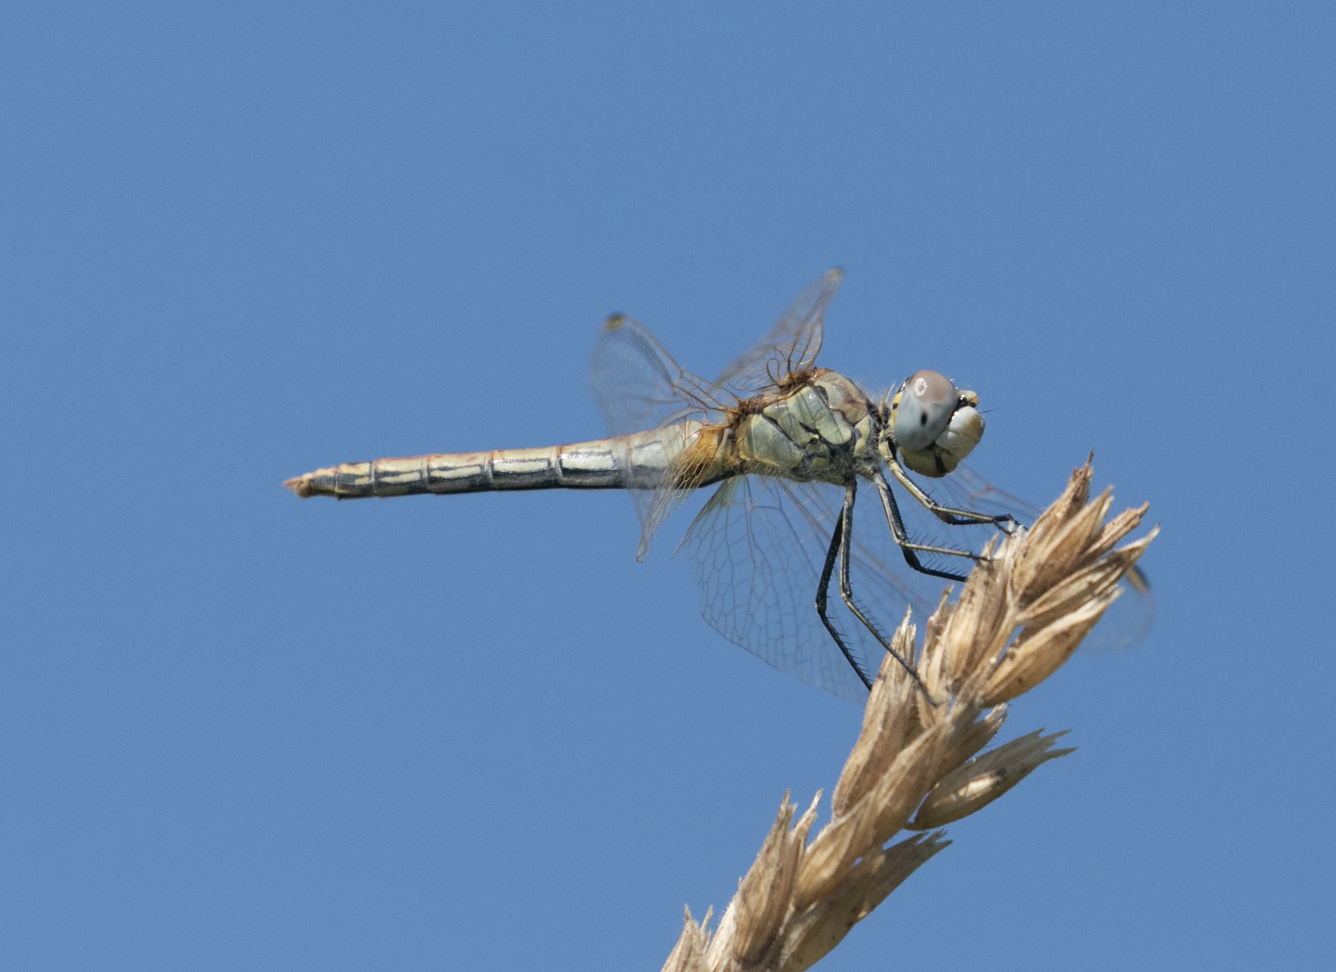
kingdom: Animalia
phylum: Arthropoda
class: Insecta
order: Odonata
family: Libellulidae
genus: Sympetrum
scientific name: Sympetrum fonscolombii
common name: Red-veined darter
